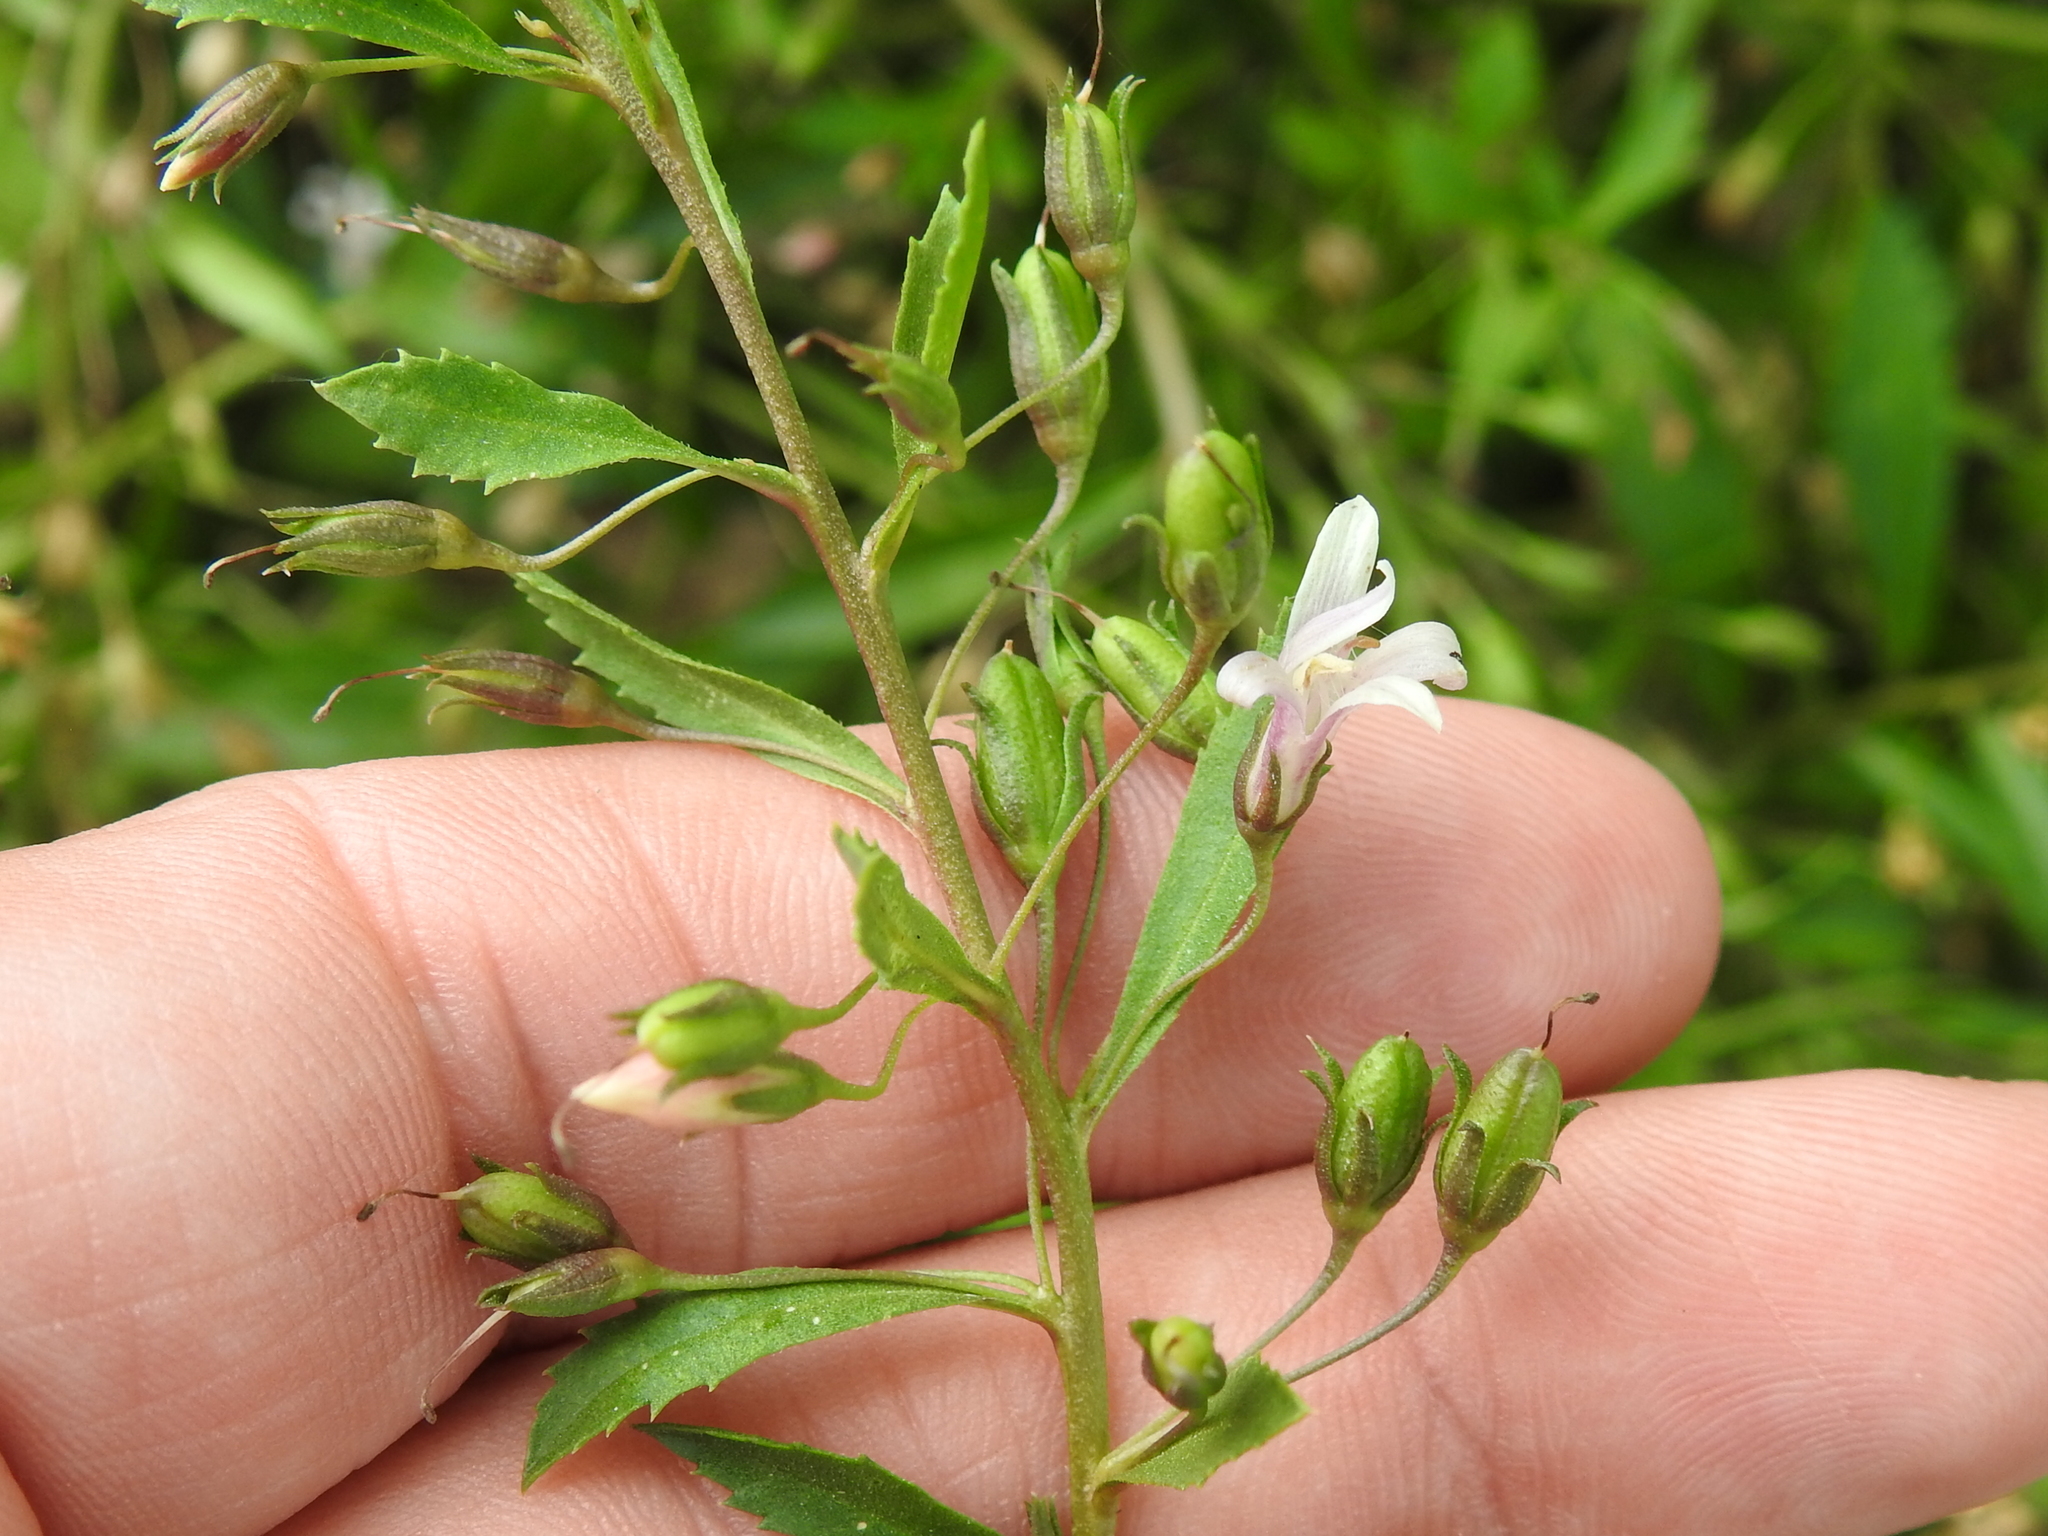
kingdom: Plantae
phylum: Tracheophyta
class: Magnoliopsida
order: Lamiales
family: Scrophulariaceae
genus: Capraria
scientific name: Capraria biflora
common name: Goatweed
